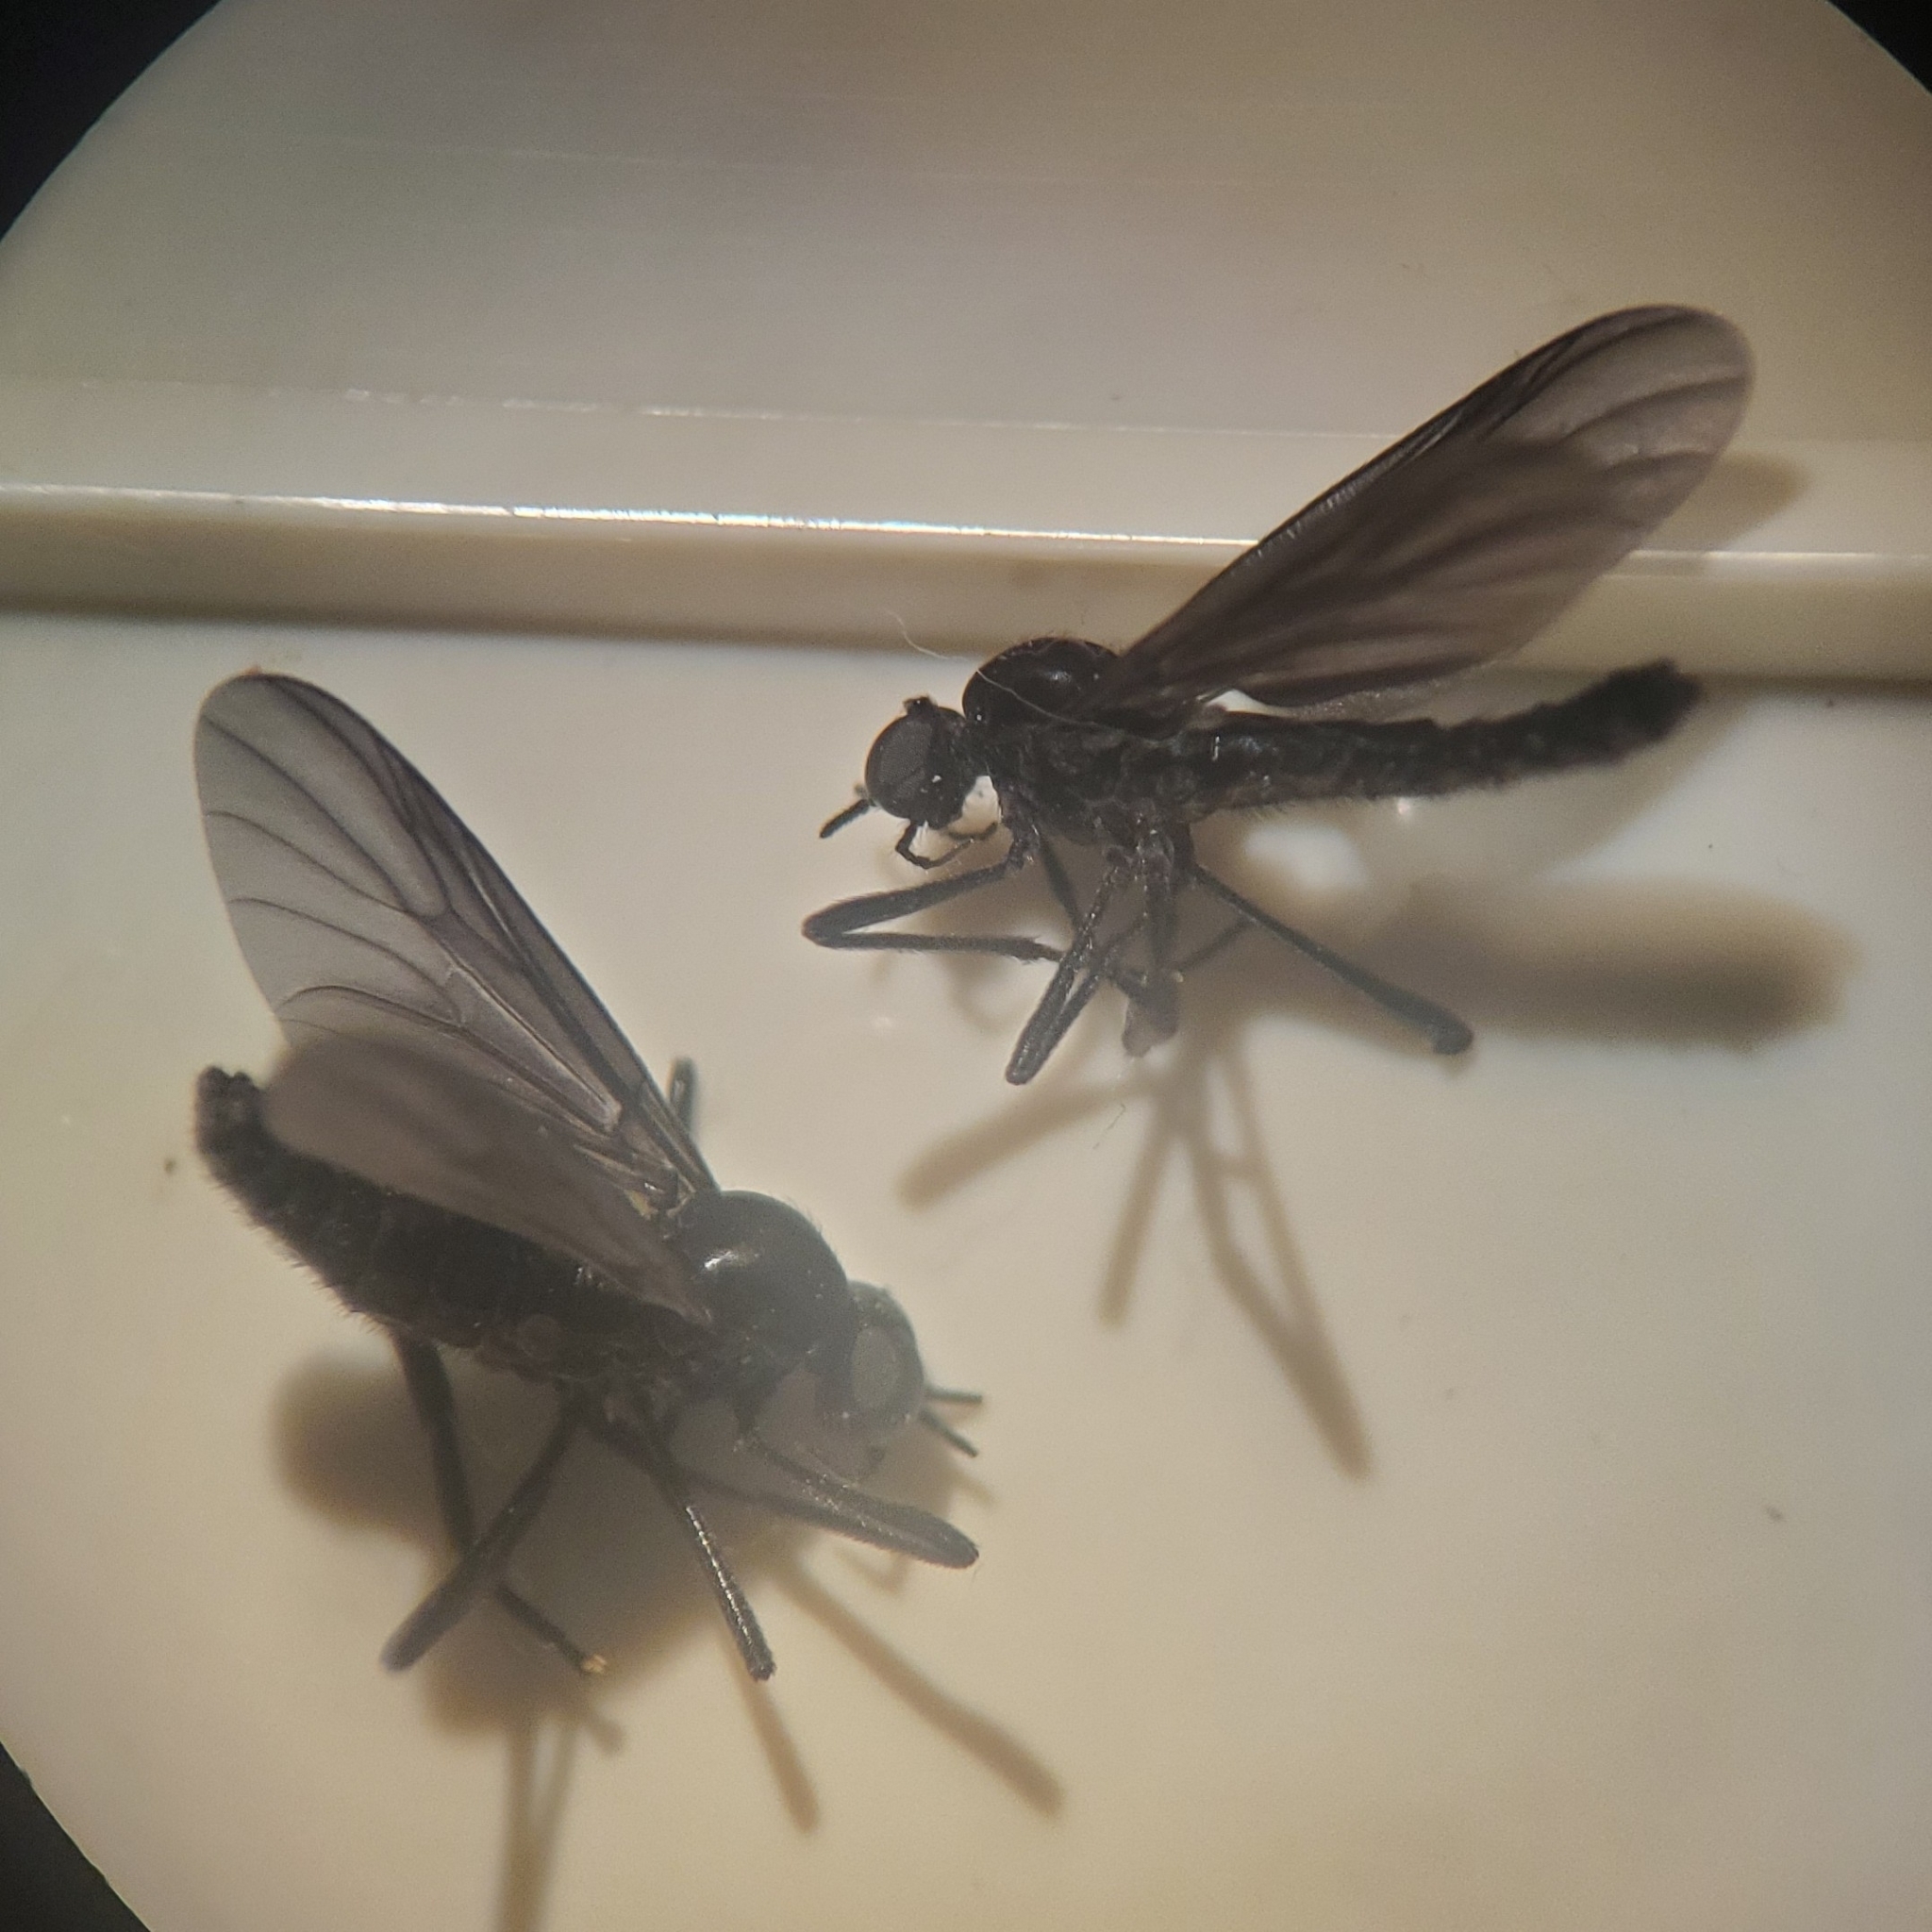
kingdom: Animalia
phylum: Arthropoda
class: Insecta
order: Diptera
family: Bibionidae
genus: Penthetria
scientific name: Penthetria heteroptera
